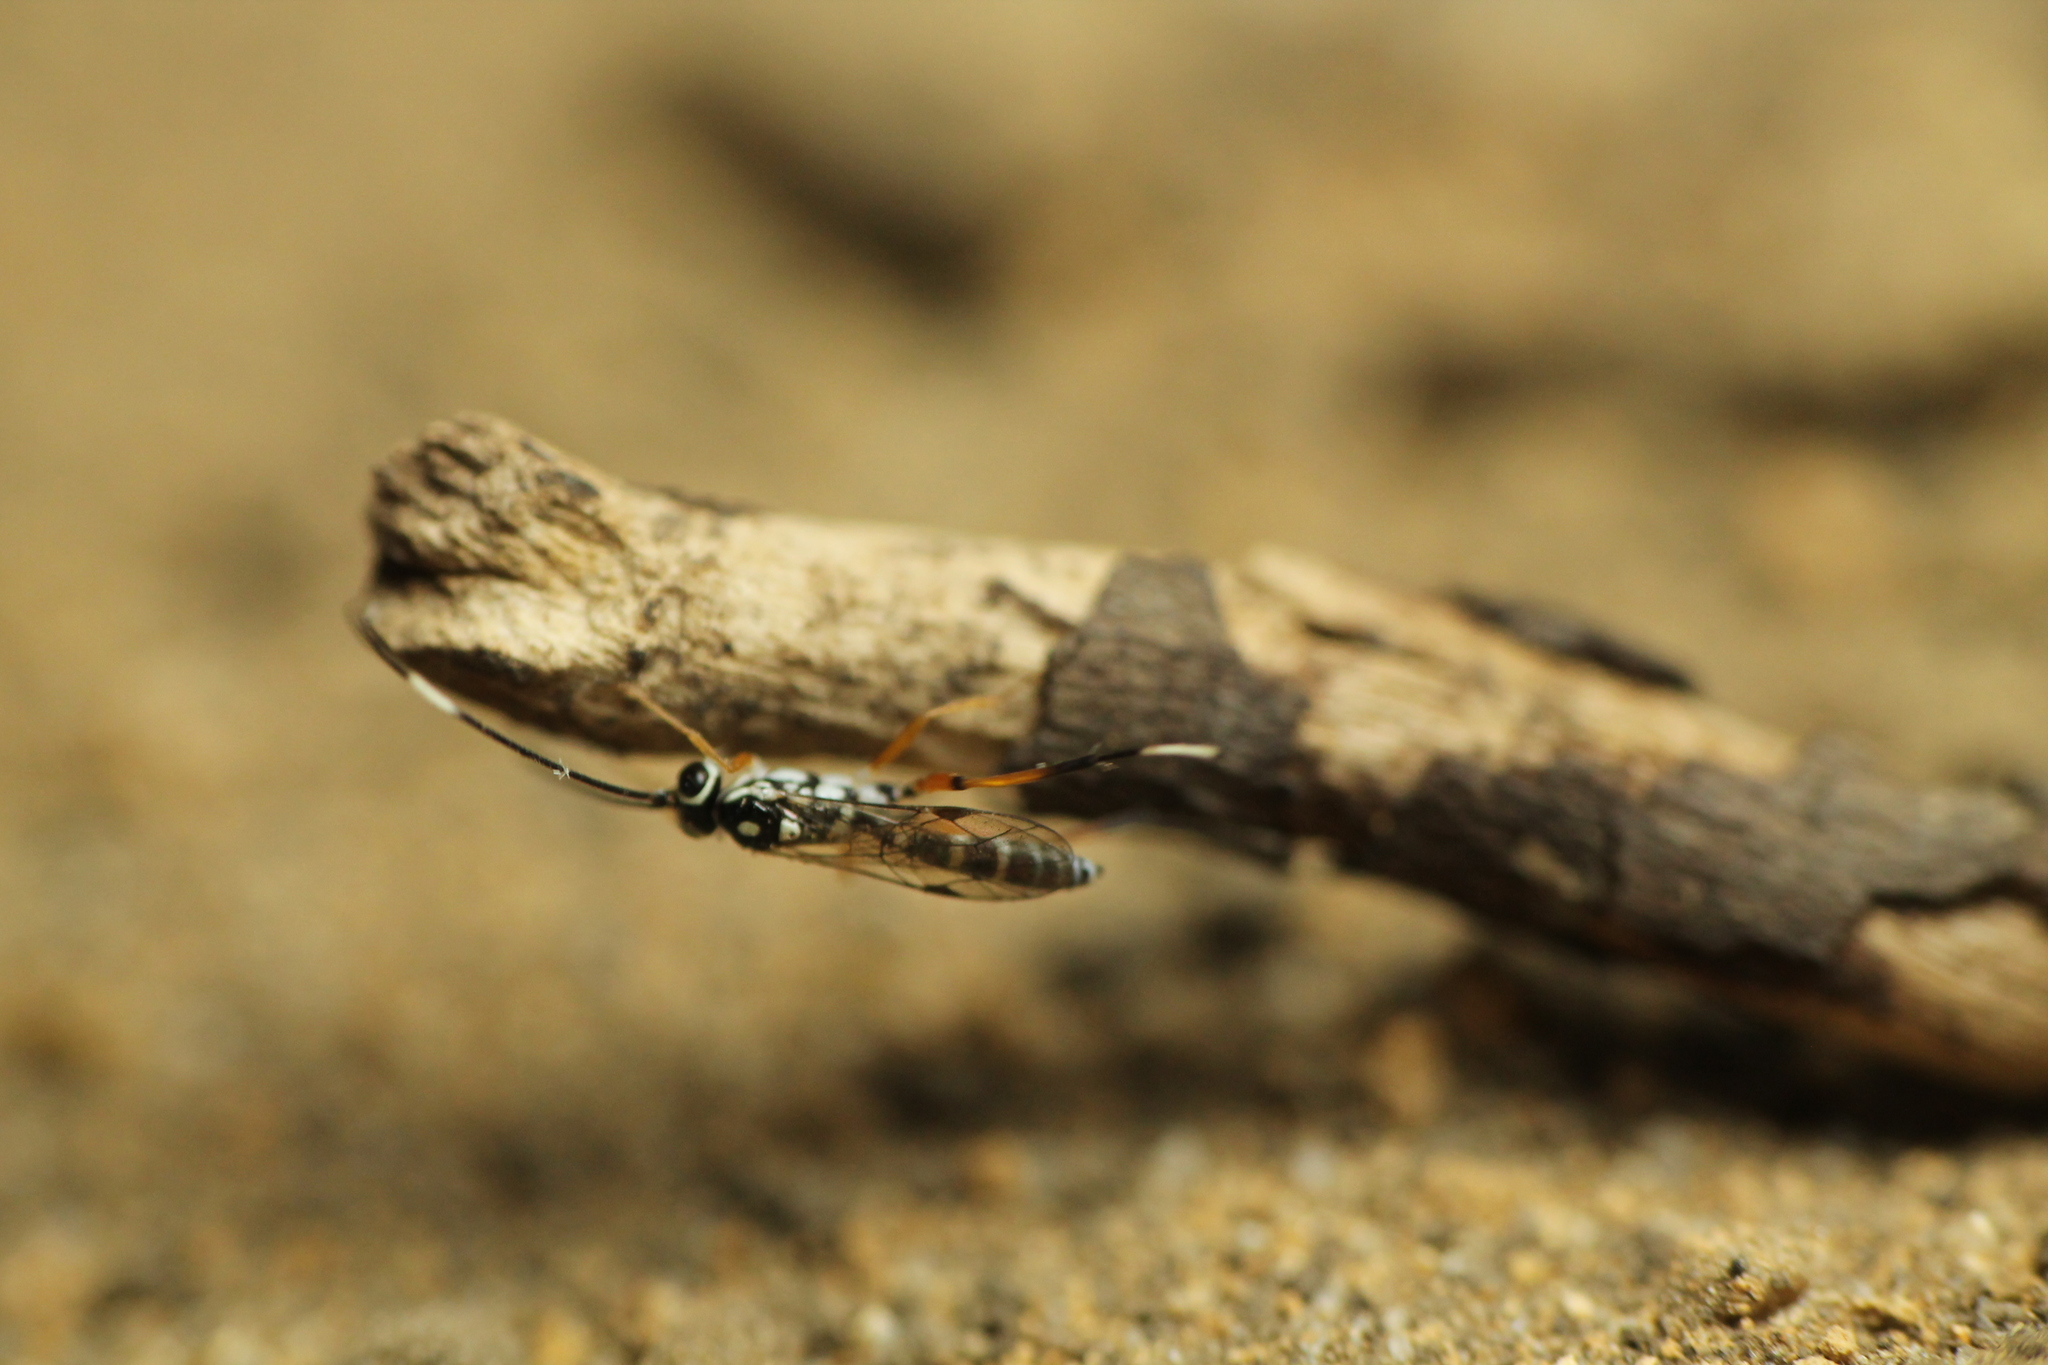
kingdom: Animalia
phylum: Arthropoda
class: Insecta
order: Hymenoptera
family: Ichneumonidae
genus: Glabridorsum
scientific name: Glabridorsum stokesii
